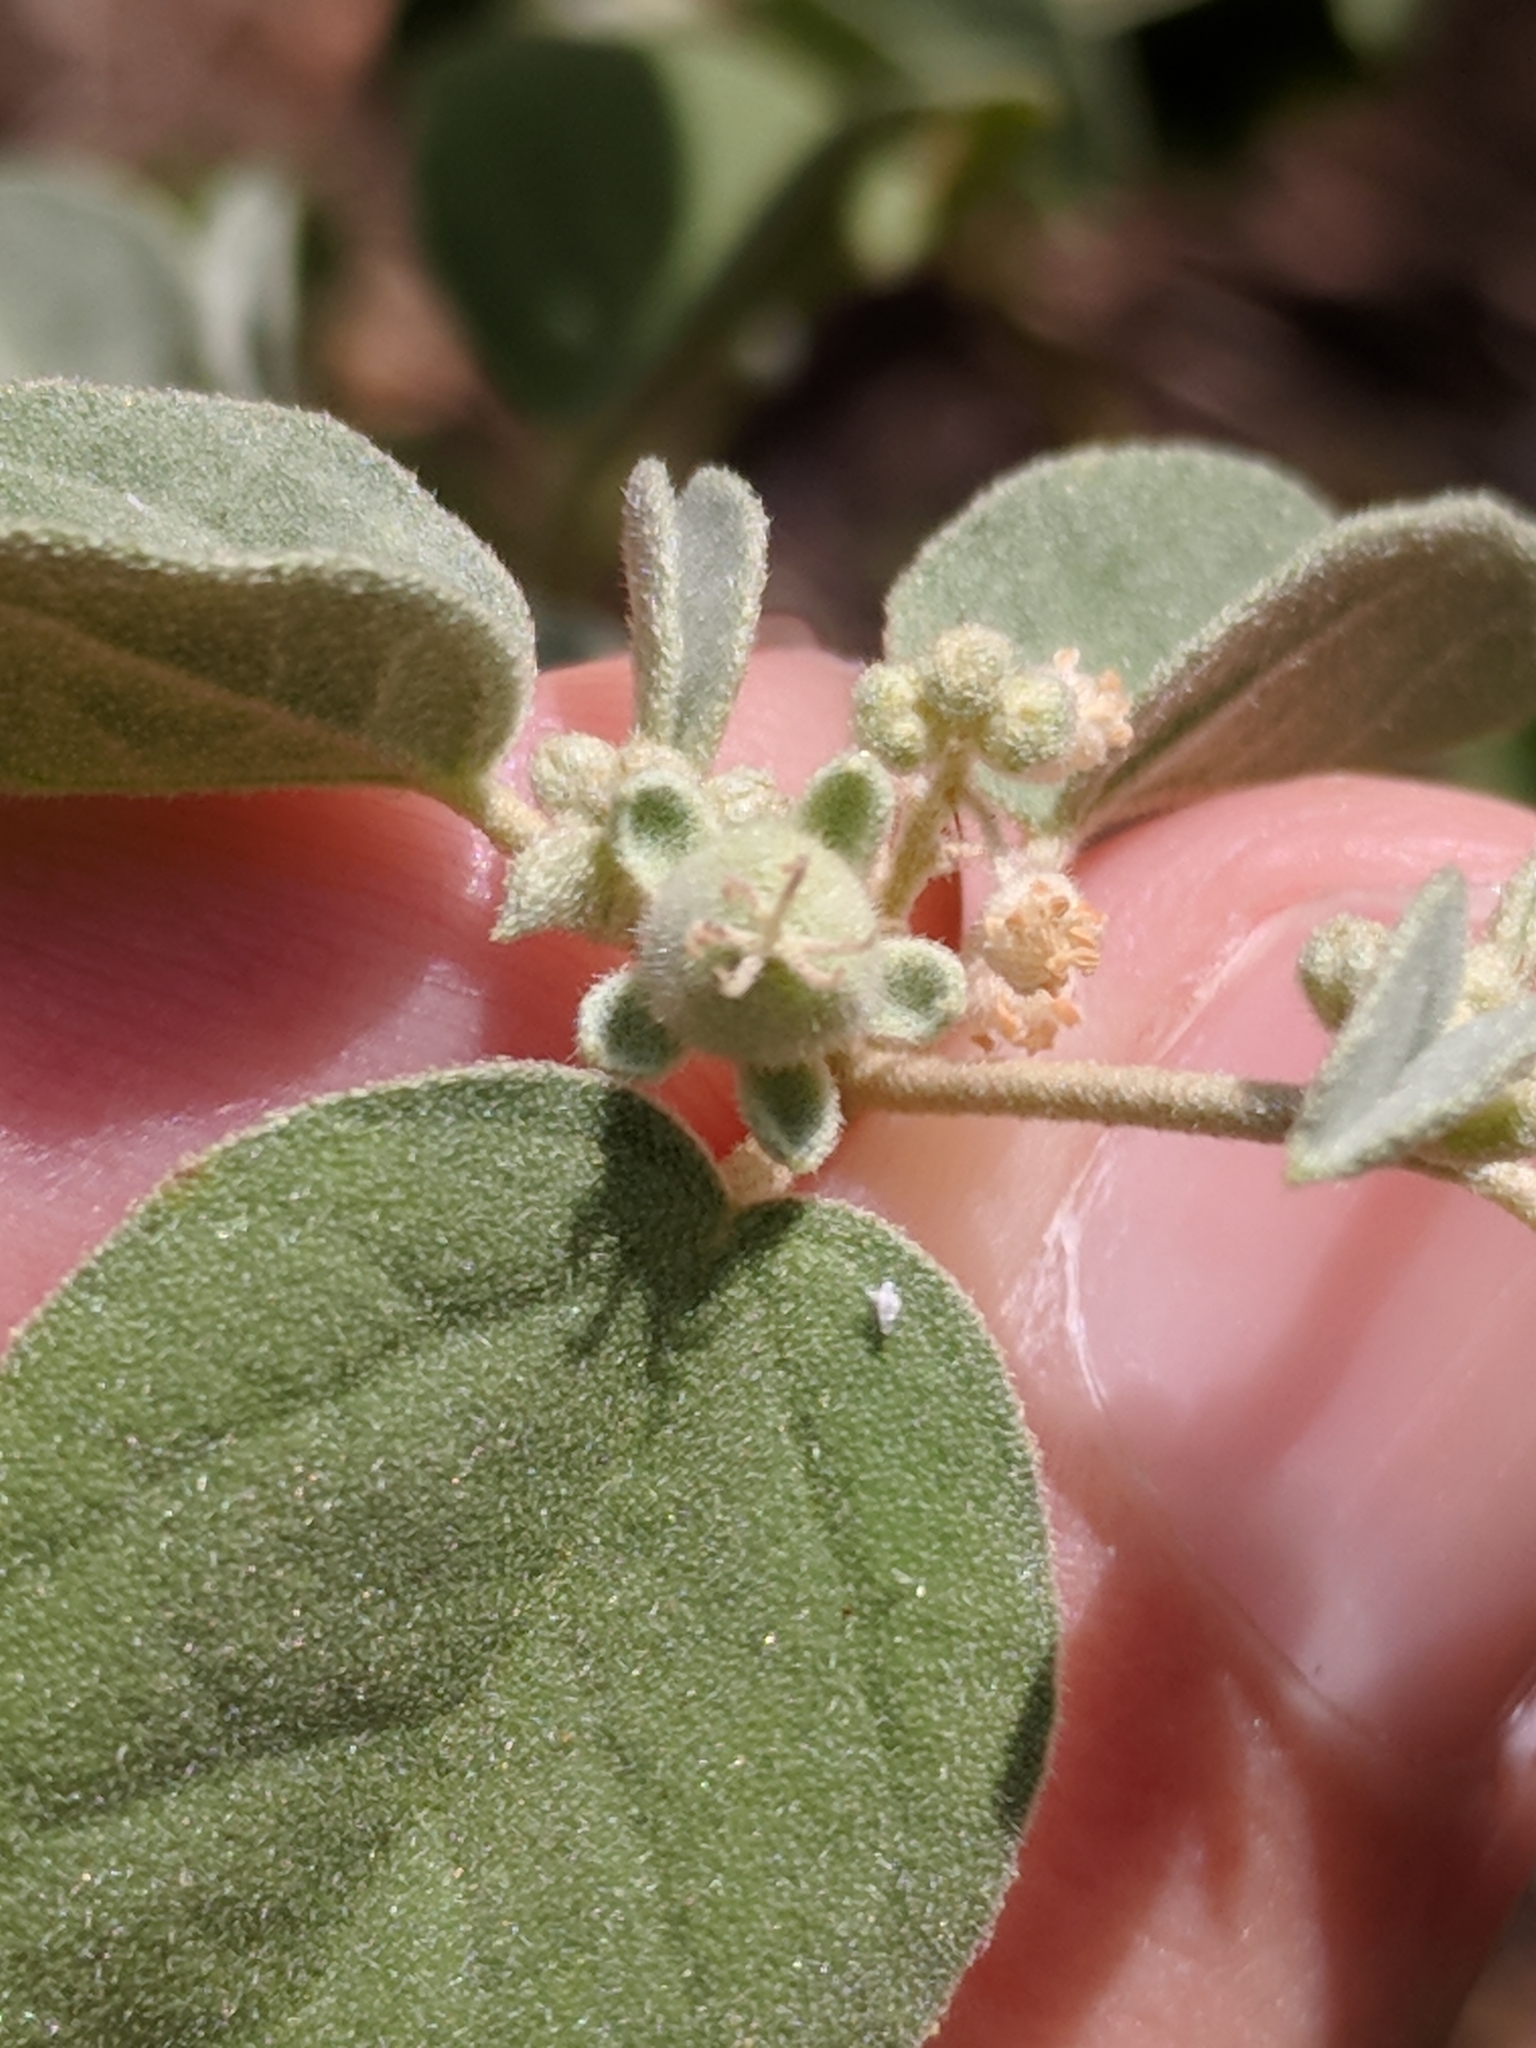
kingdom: Plantae
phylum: Tracheophyta
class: Magnoliopsida
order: Malpighiales
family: Euphorbiaceae
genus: Croton
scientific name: Croton lindheimerianus
